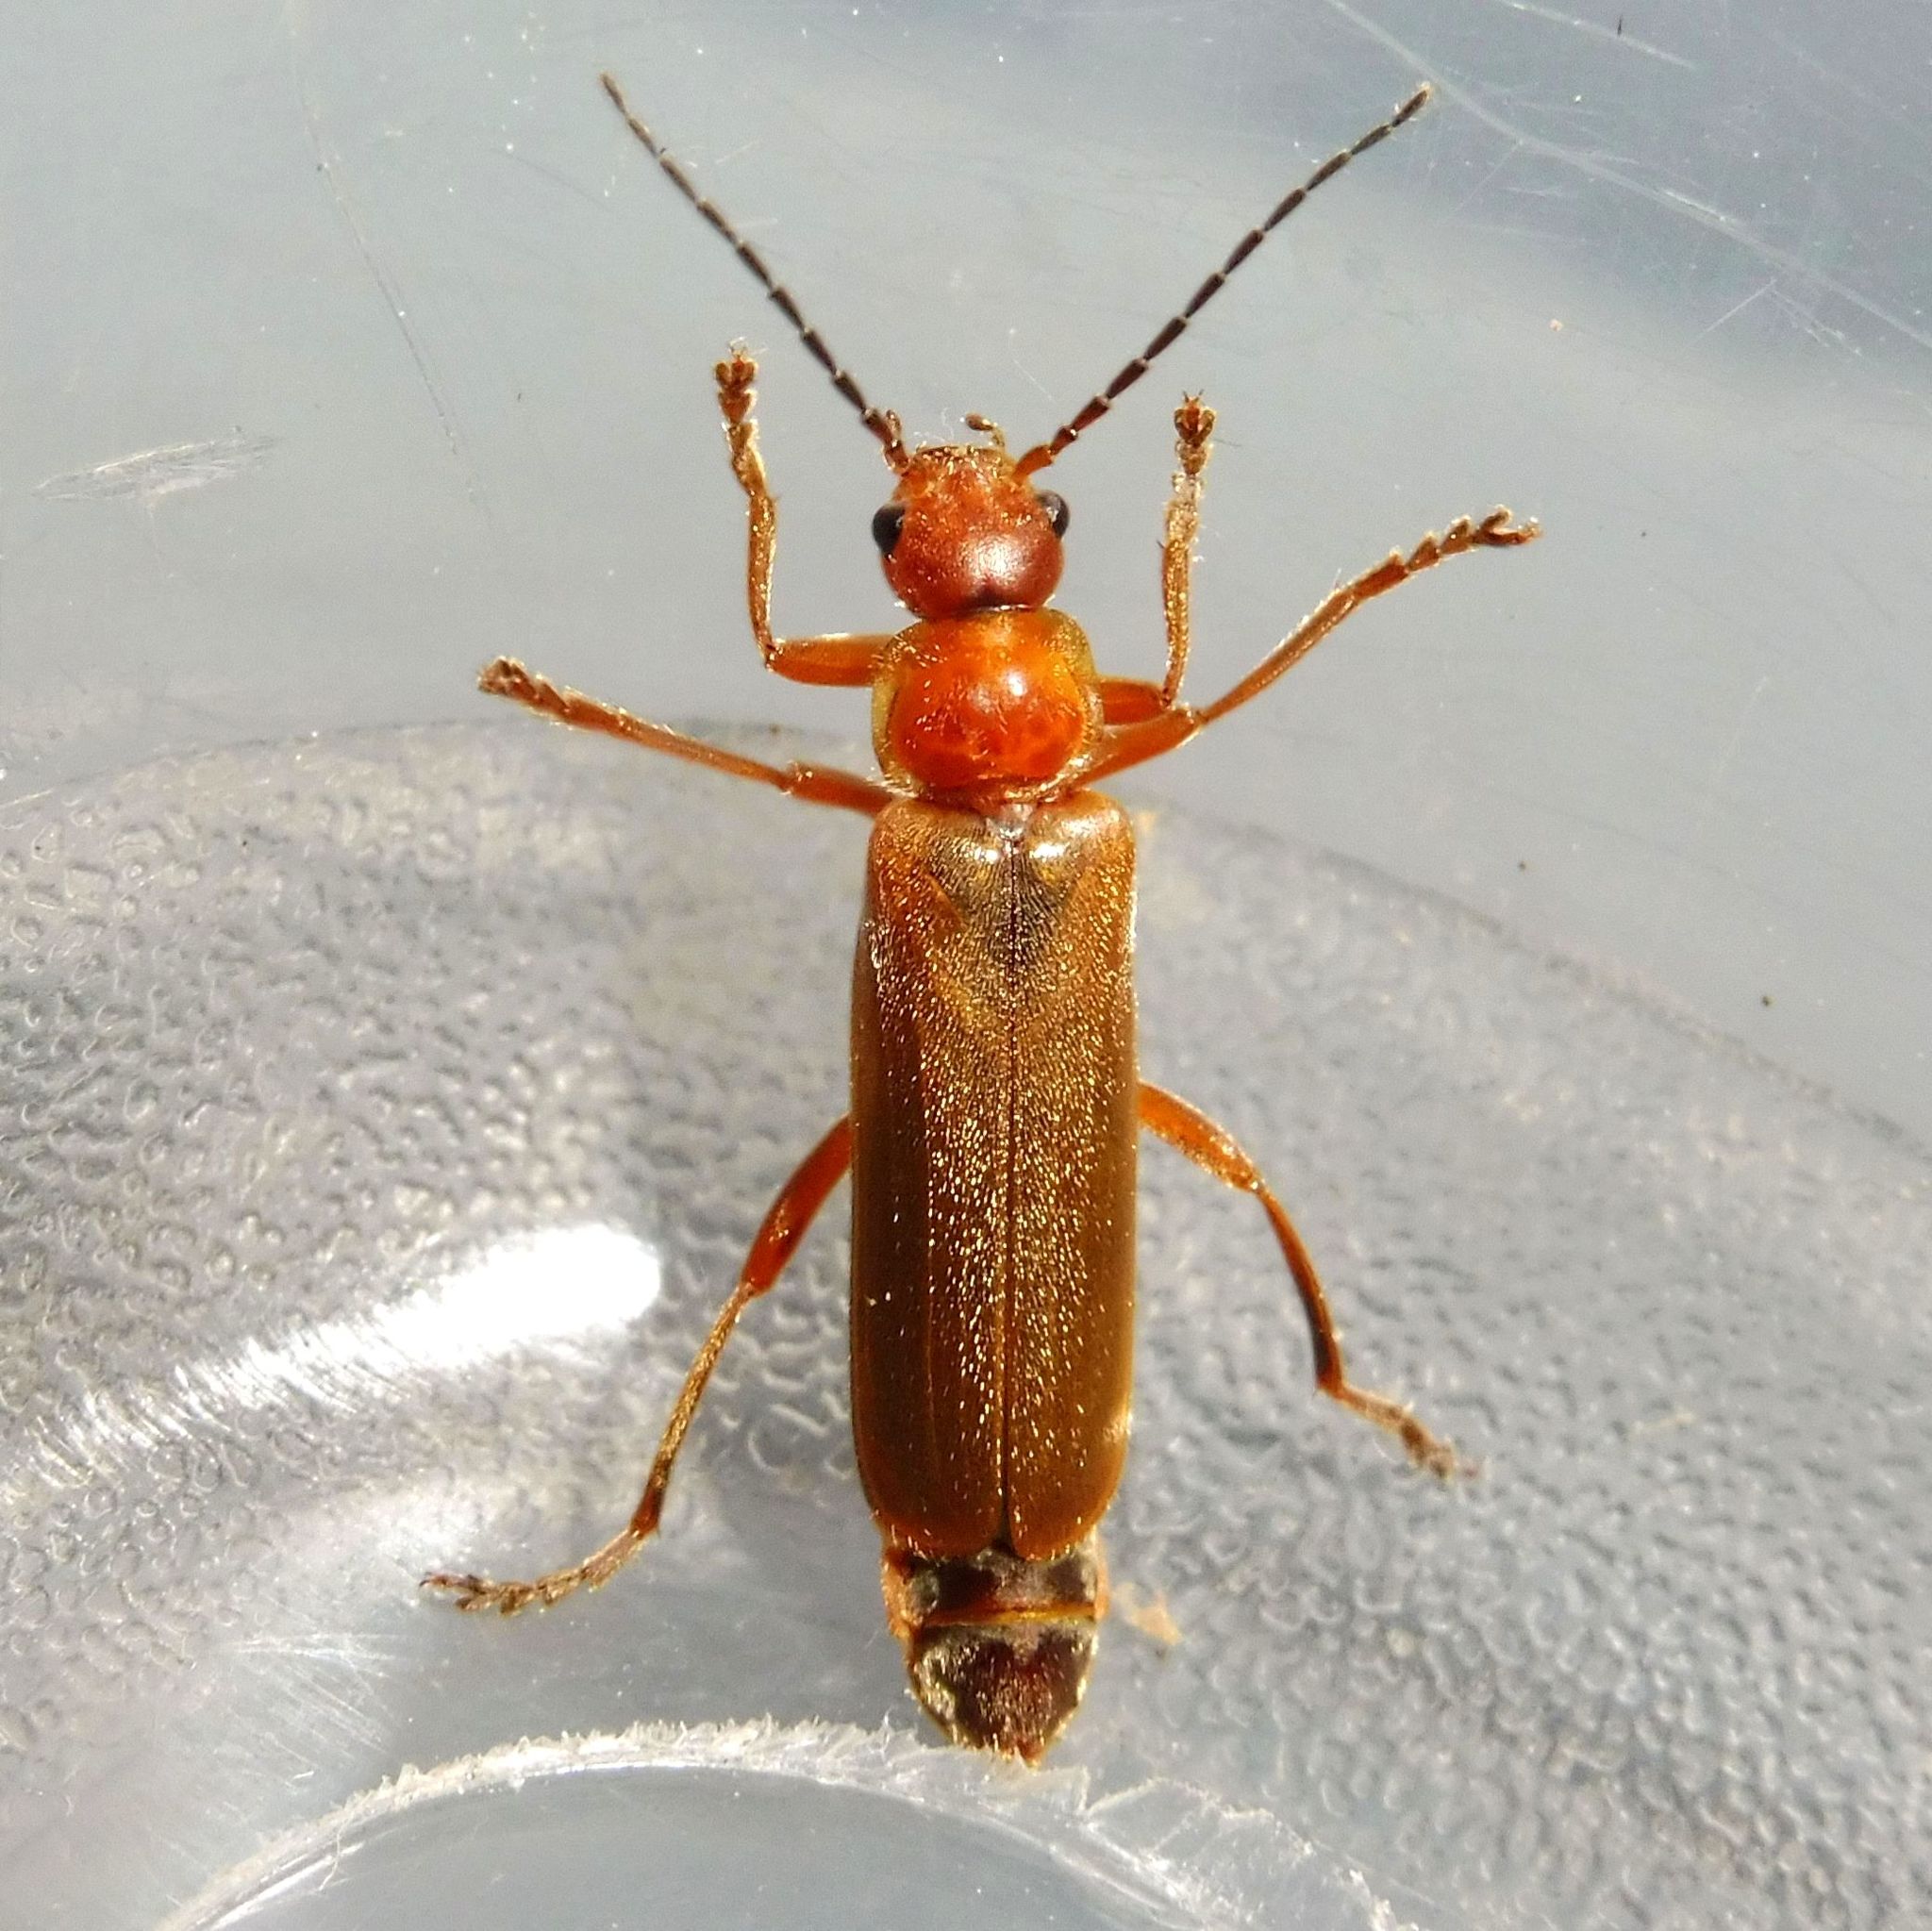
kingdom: Animalia
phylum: Arthropoda
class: Insecta
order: Coleoptera
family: Cantharidae
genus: Cantharis
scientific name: Cantharis rufa
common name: Red-spotted soldier beetle
